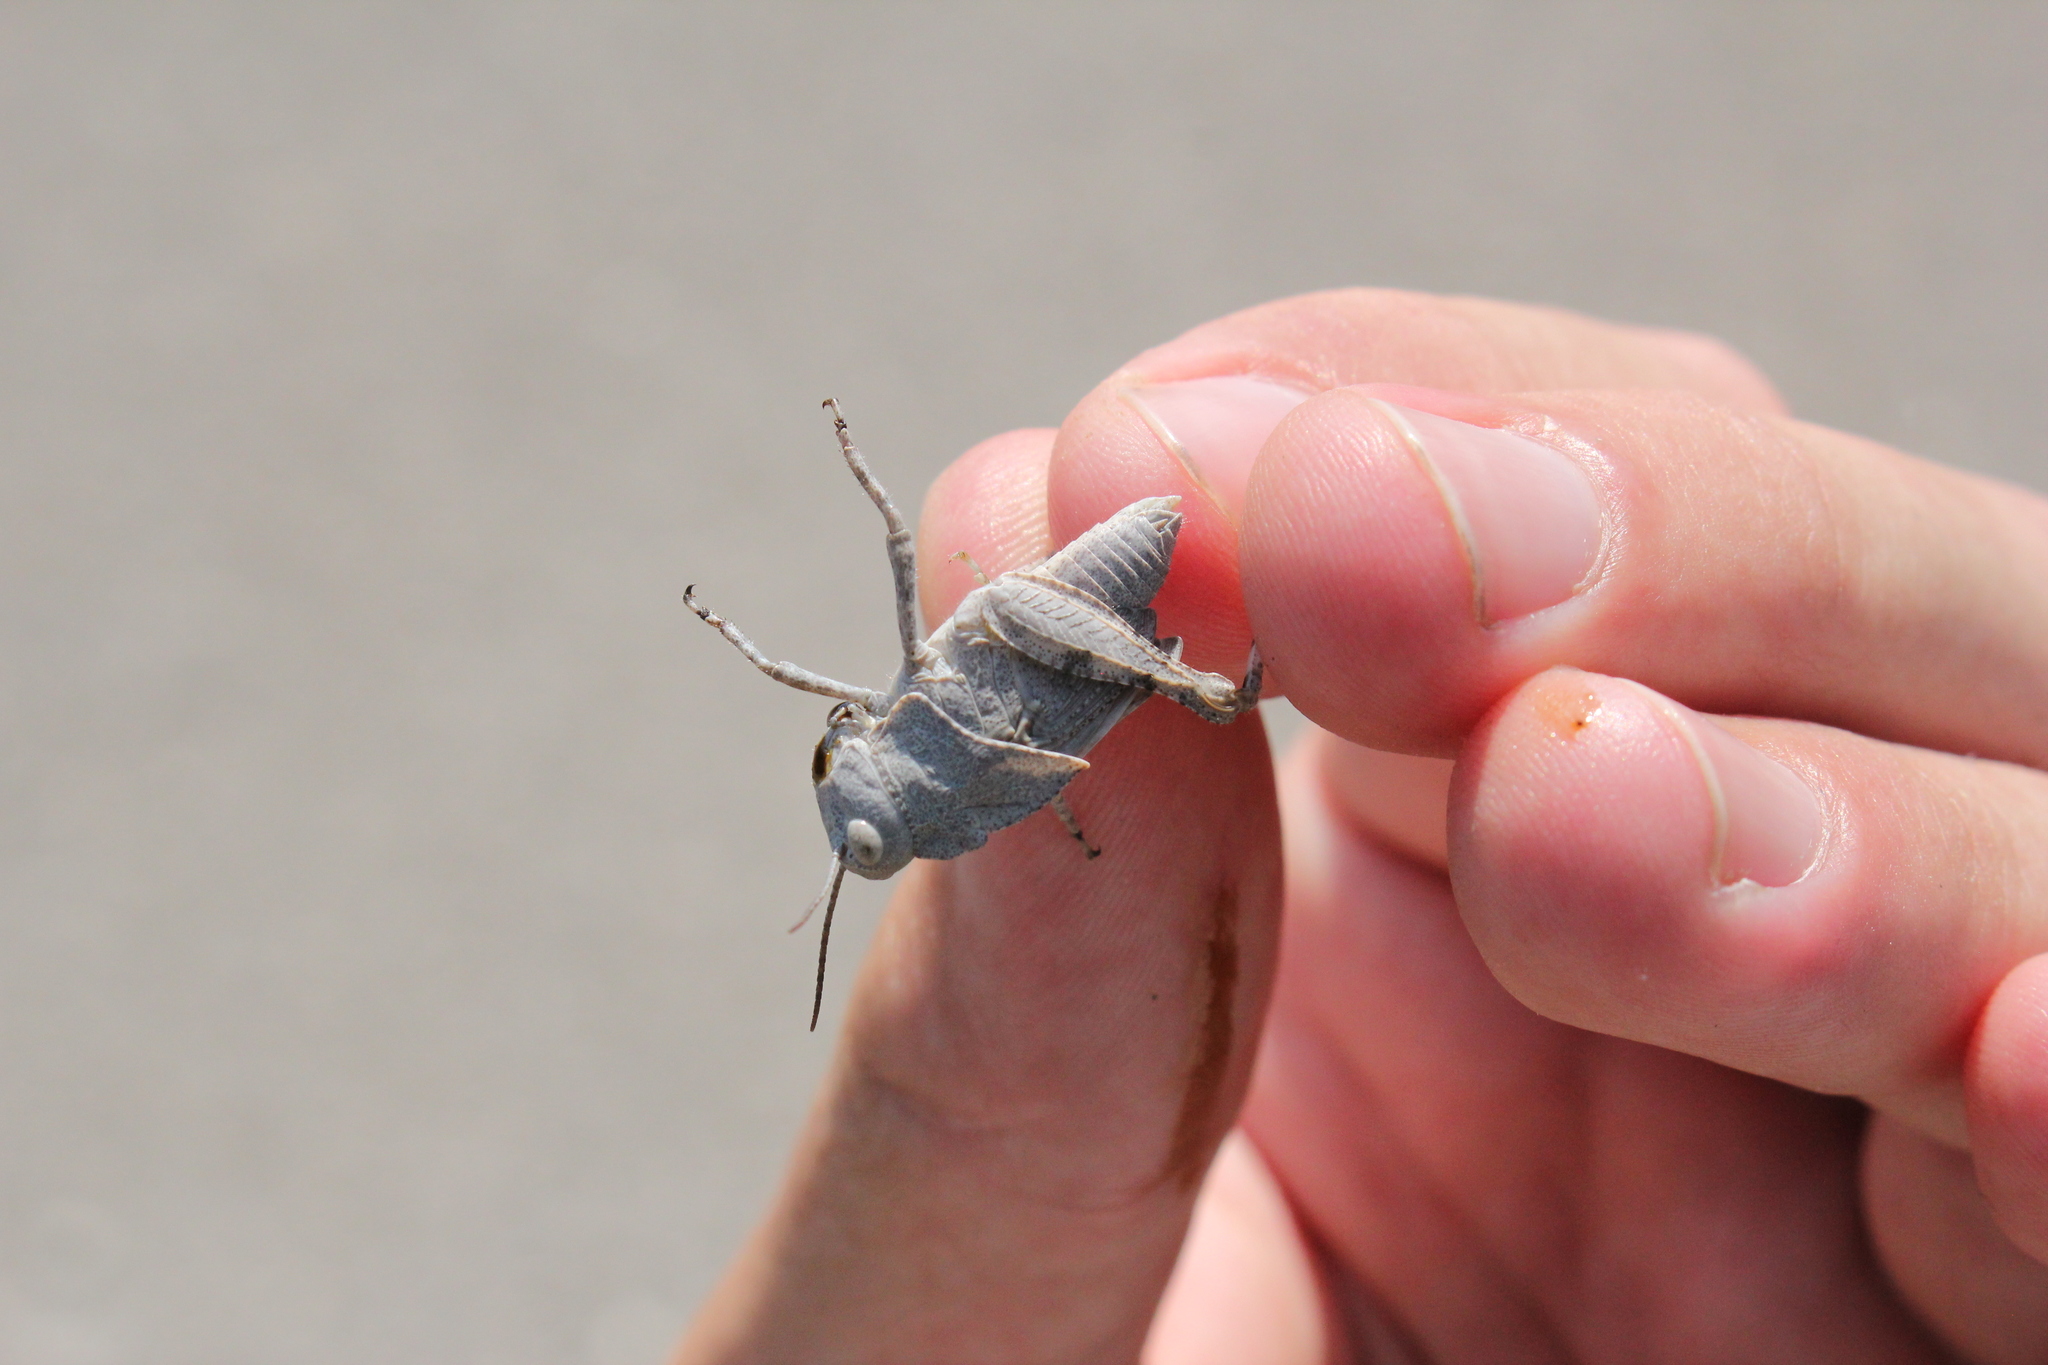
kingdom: Animalia
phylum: Arthropoda
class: Insecta
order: Orthoptera
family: Acrididae
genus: Dissosteira
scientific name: Dissosteira carolina
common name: Carolina grasshopper
